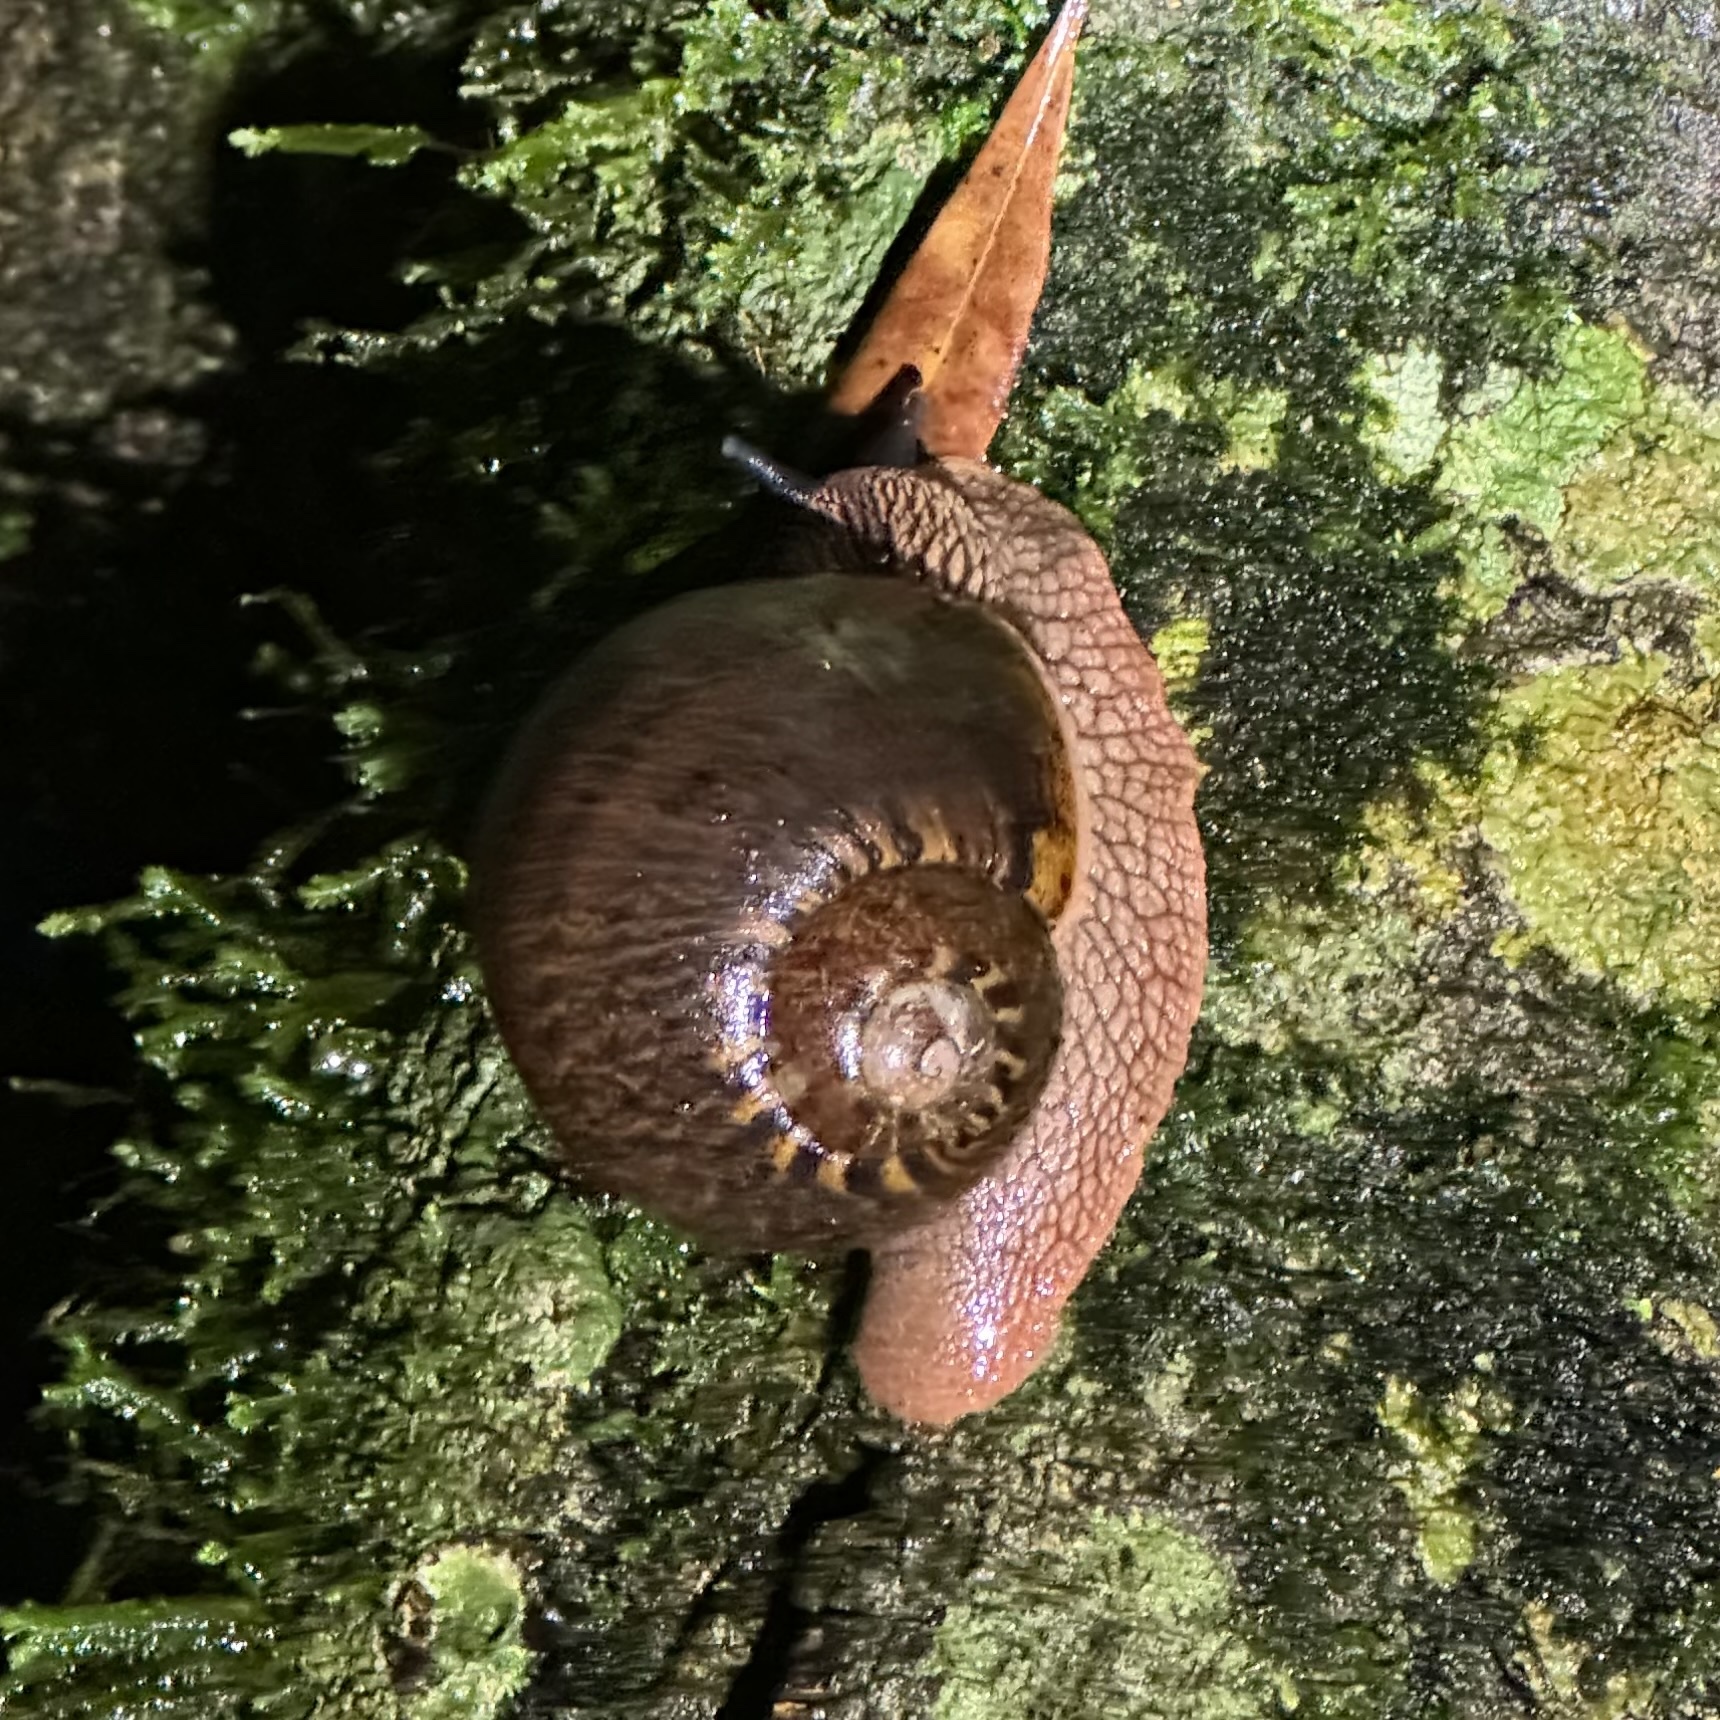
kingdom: Animalia
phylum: Mollusca
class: Gastropoda
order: Stylommatophora
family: Caryodidae
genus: Hedleyella
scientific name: Hedleyella falconeri
